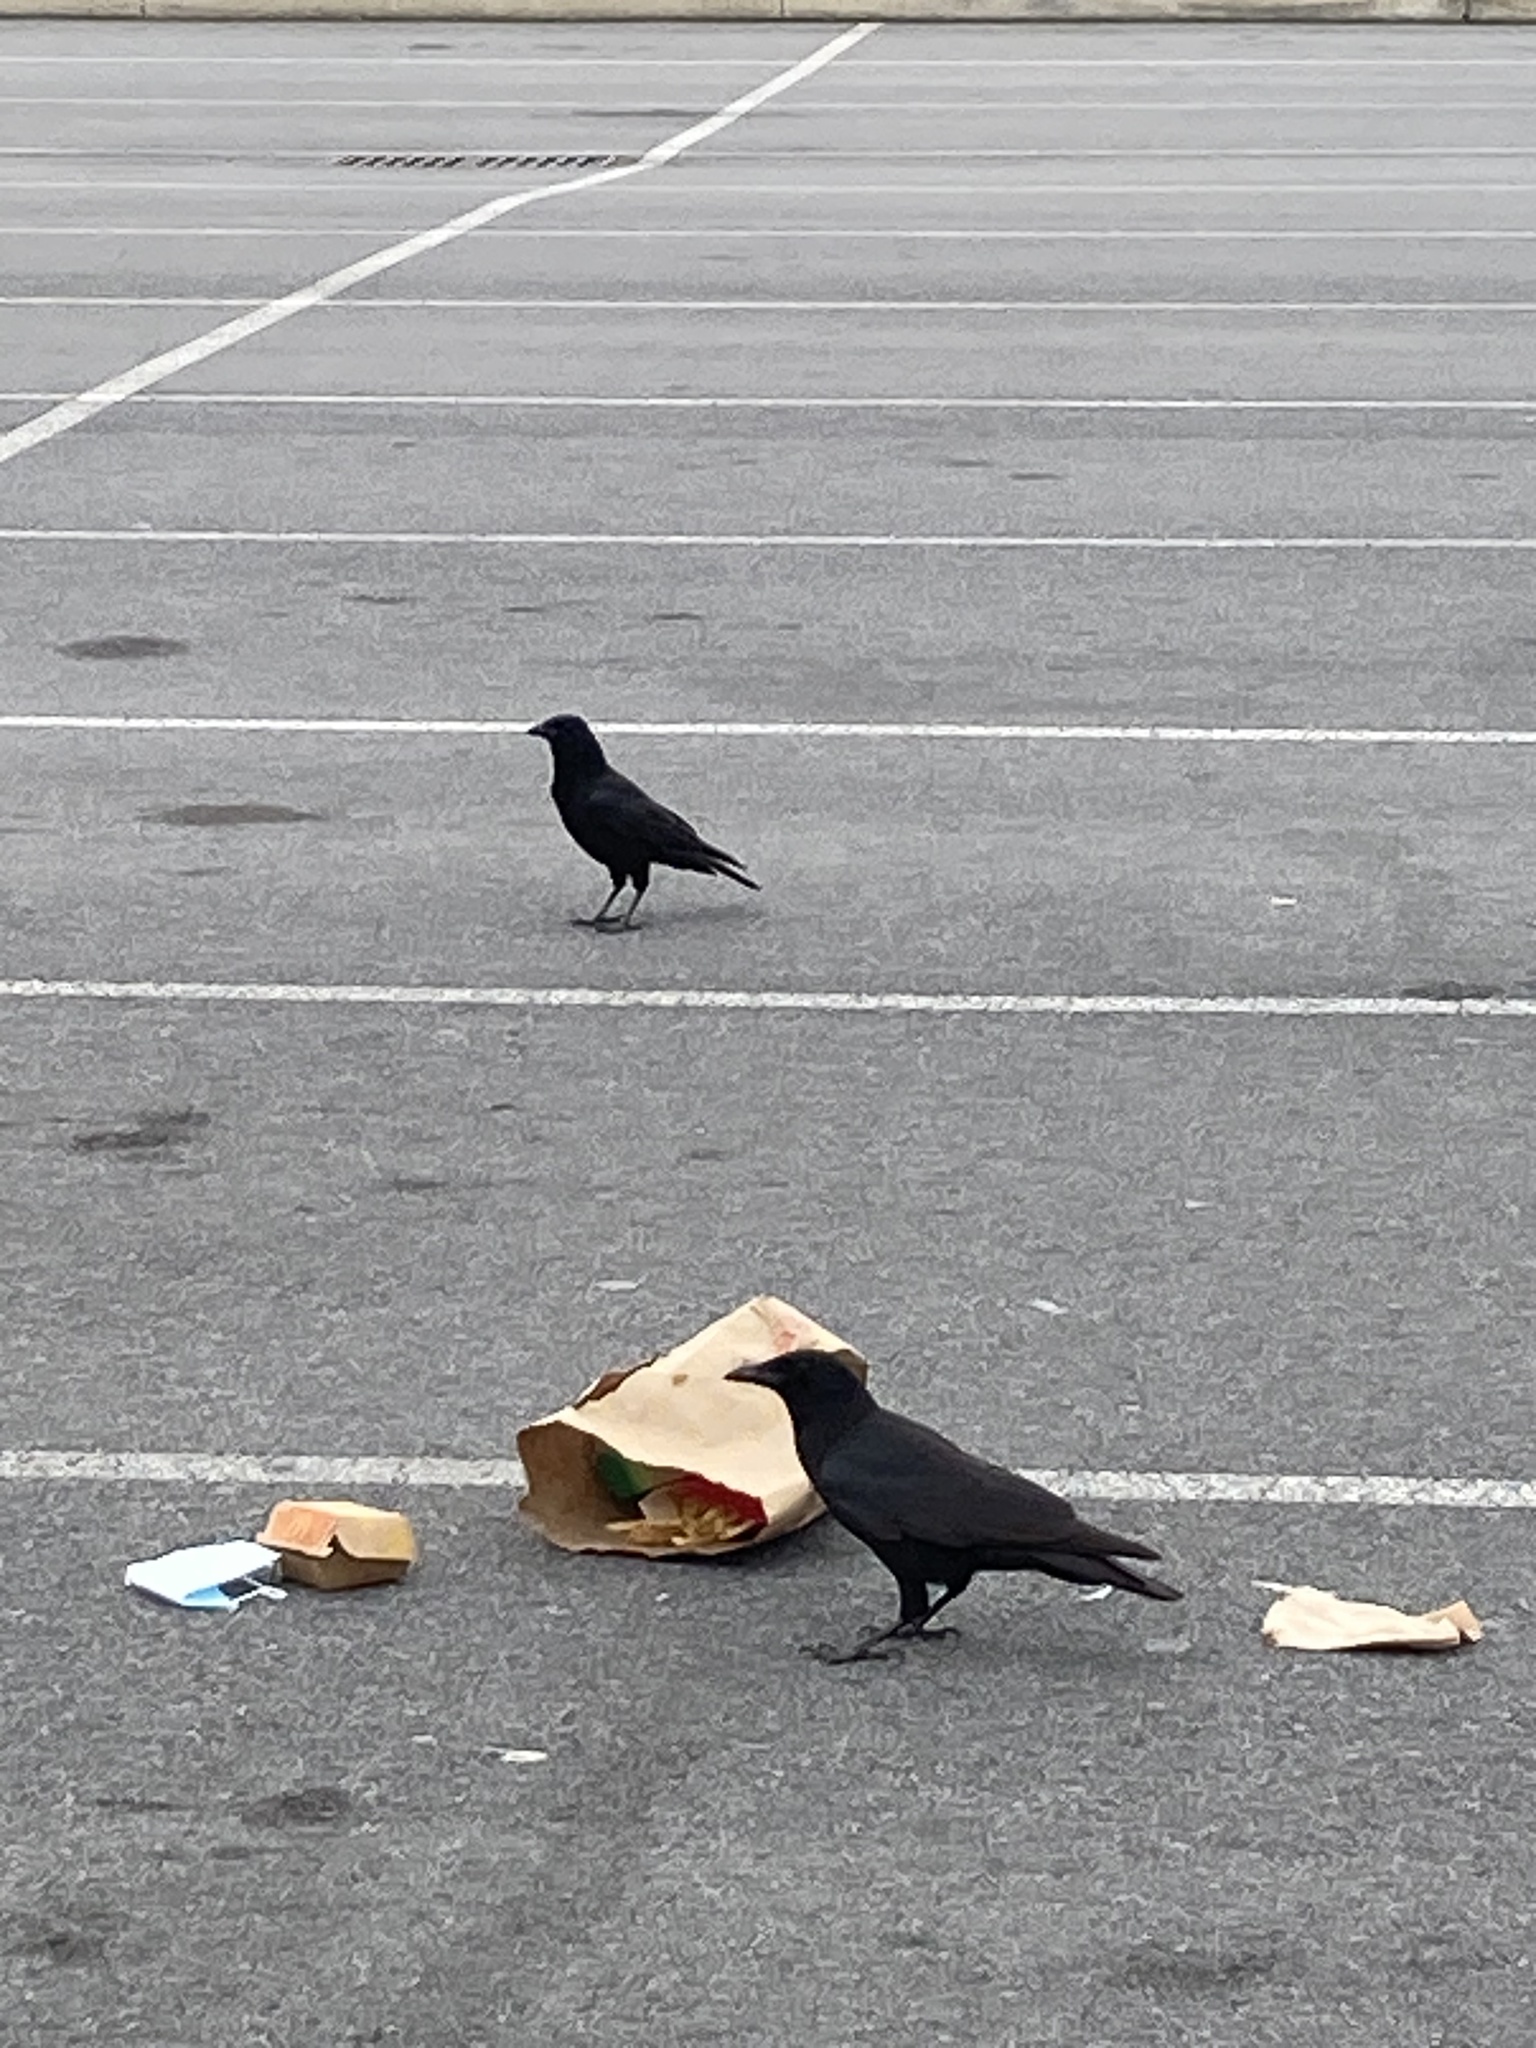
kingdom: Animalia
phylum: Chordata
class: Aves
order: Passeriformes
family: Corvidae
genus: Corvus
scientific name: Corvus brachyrhynchos
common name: American crow
